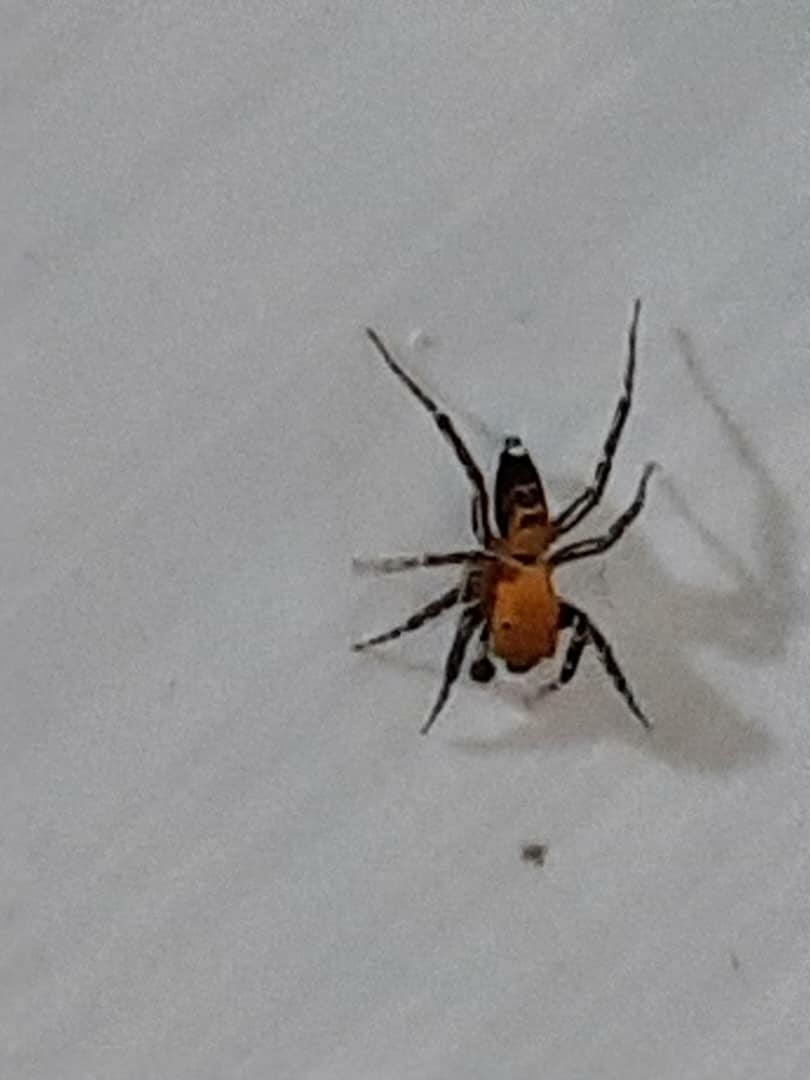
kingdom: Animalia
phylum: Arthropoda
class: Arachnida
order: Araneae
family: Salticidae
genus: Cyrba
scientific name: Cyrba algerina
